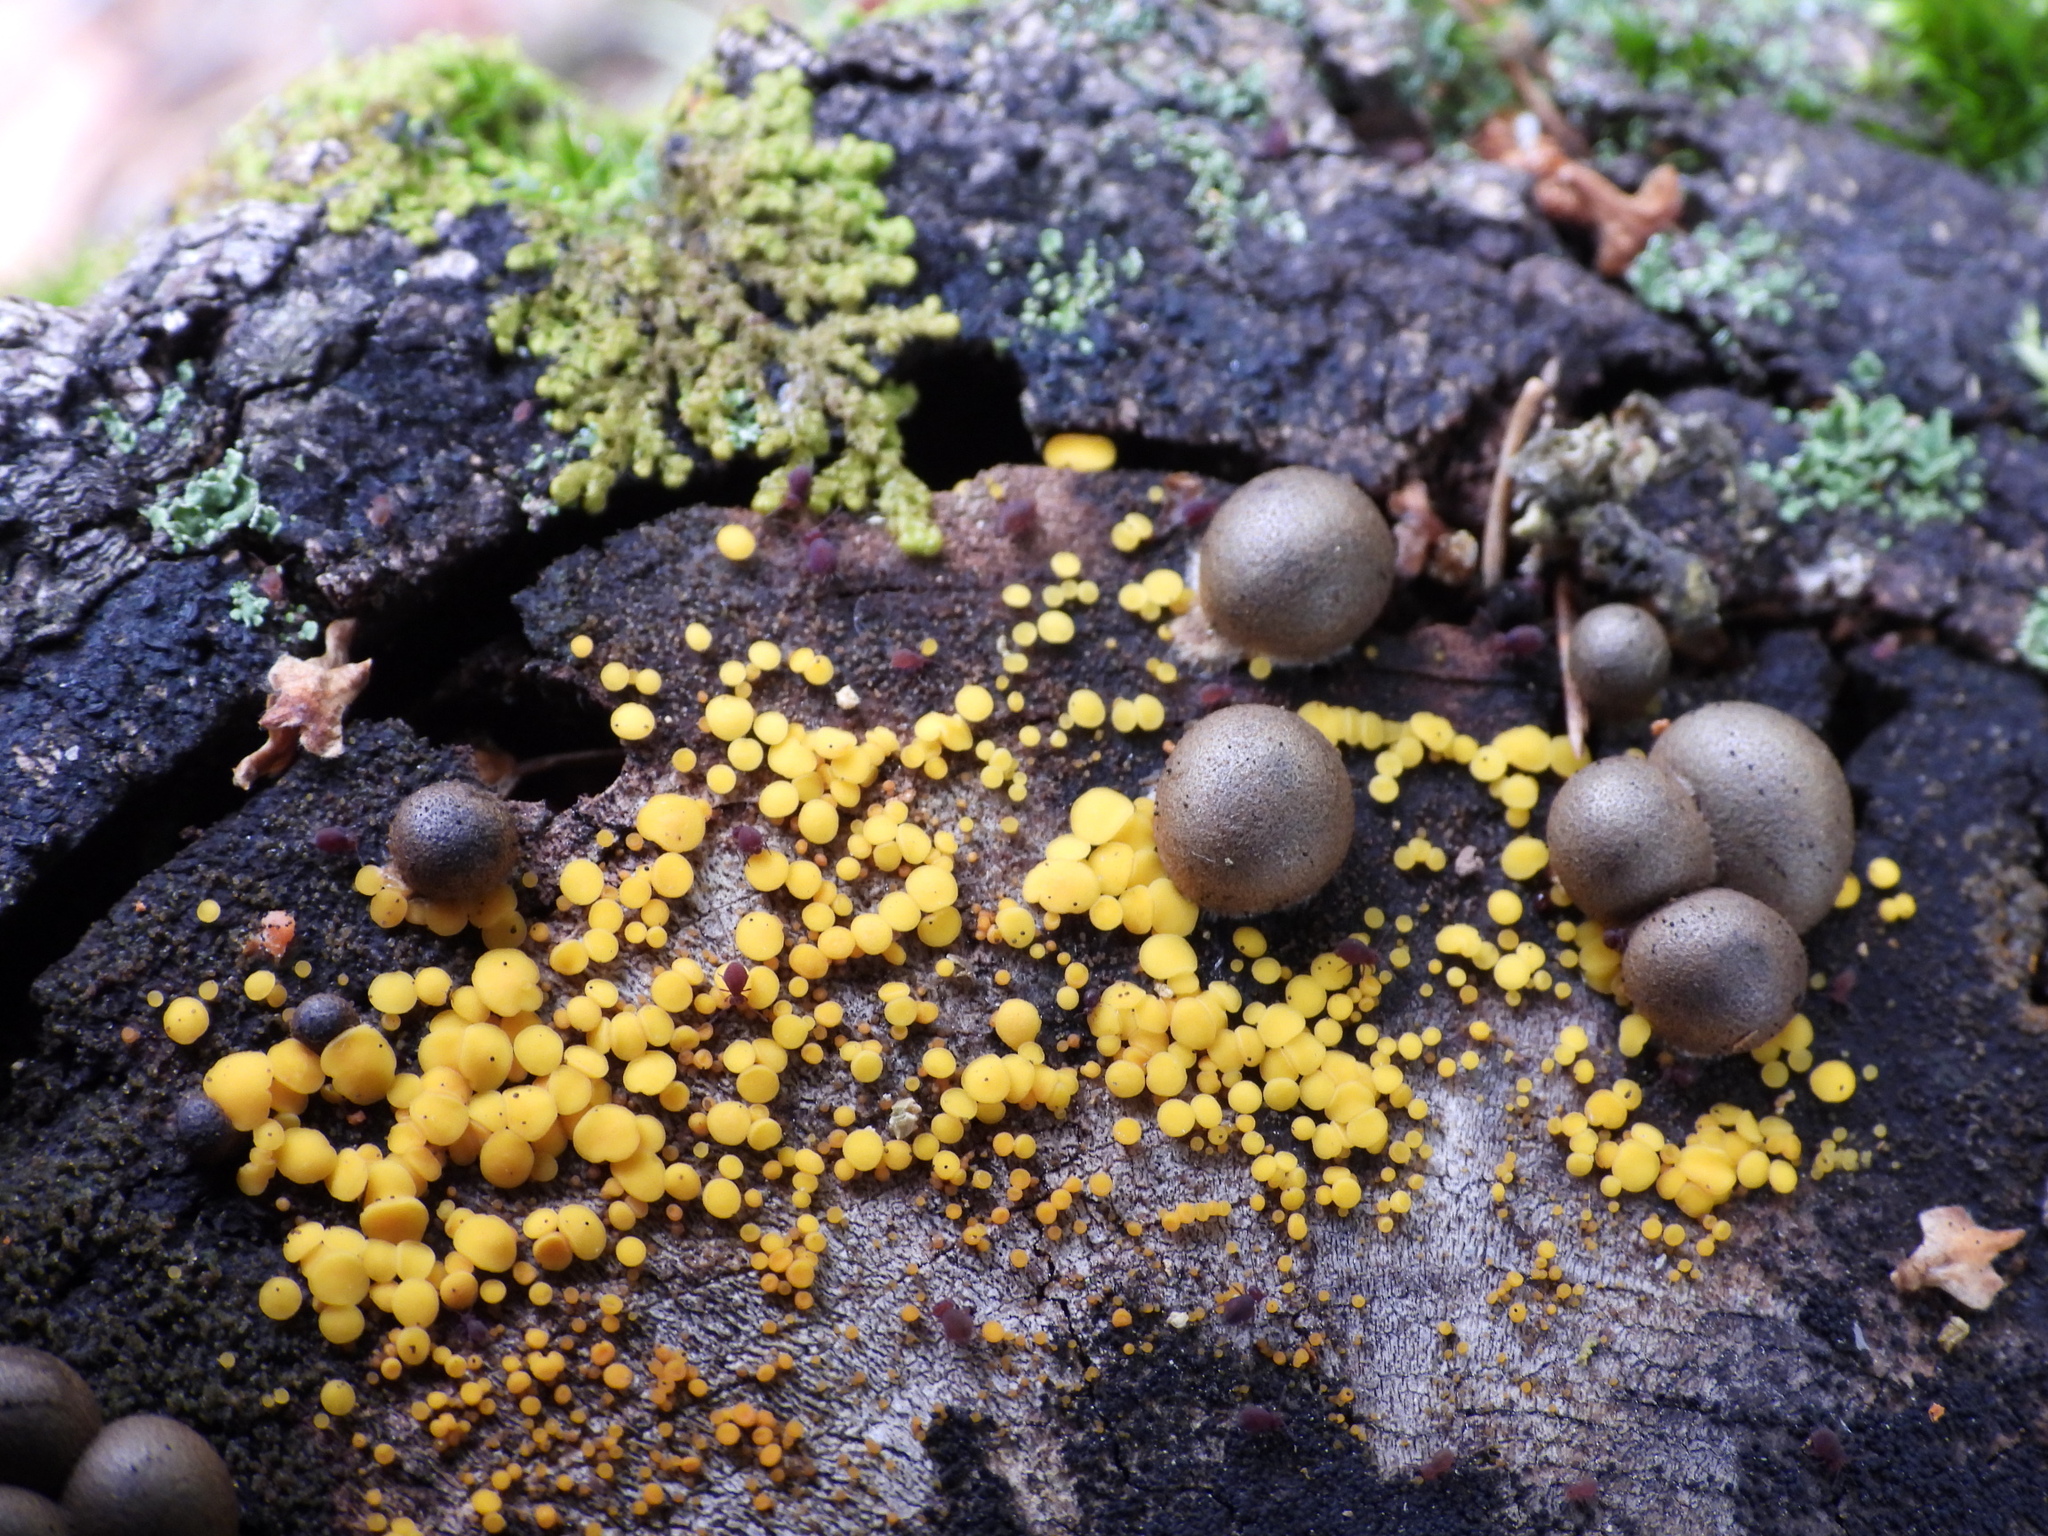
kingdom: Fungi
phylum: Ascomycota
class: Leotiomycetes
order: Helotiales
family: Pezizellaceae
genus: Calycina
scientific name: Calycina citrina
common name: Yellow fairy cups
